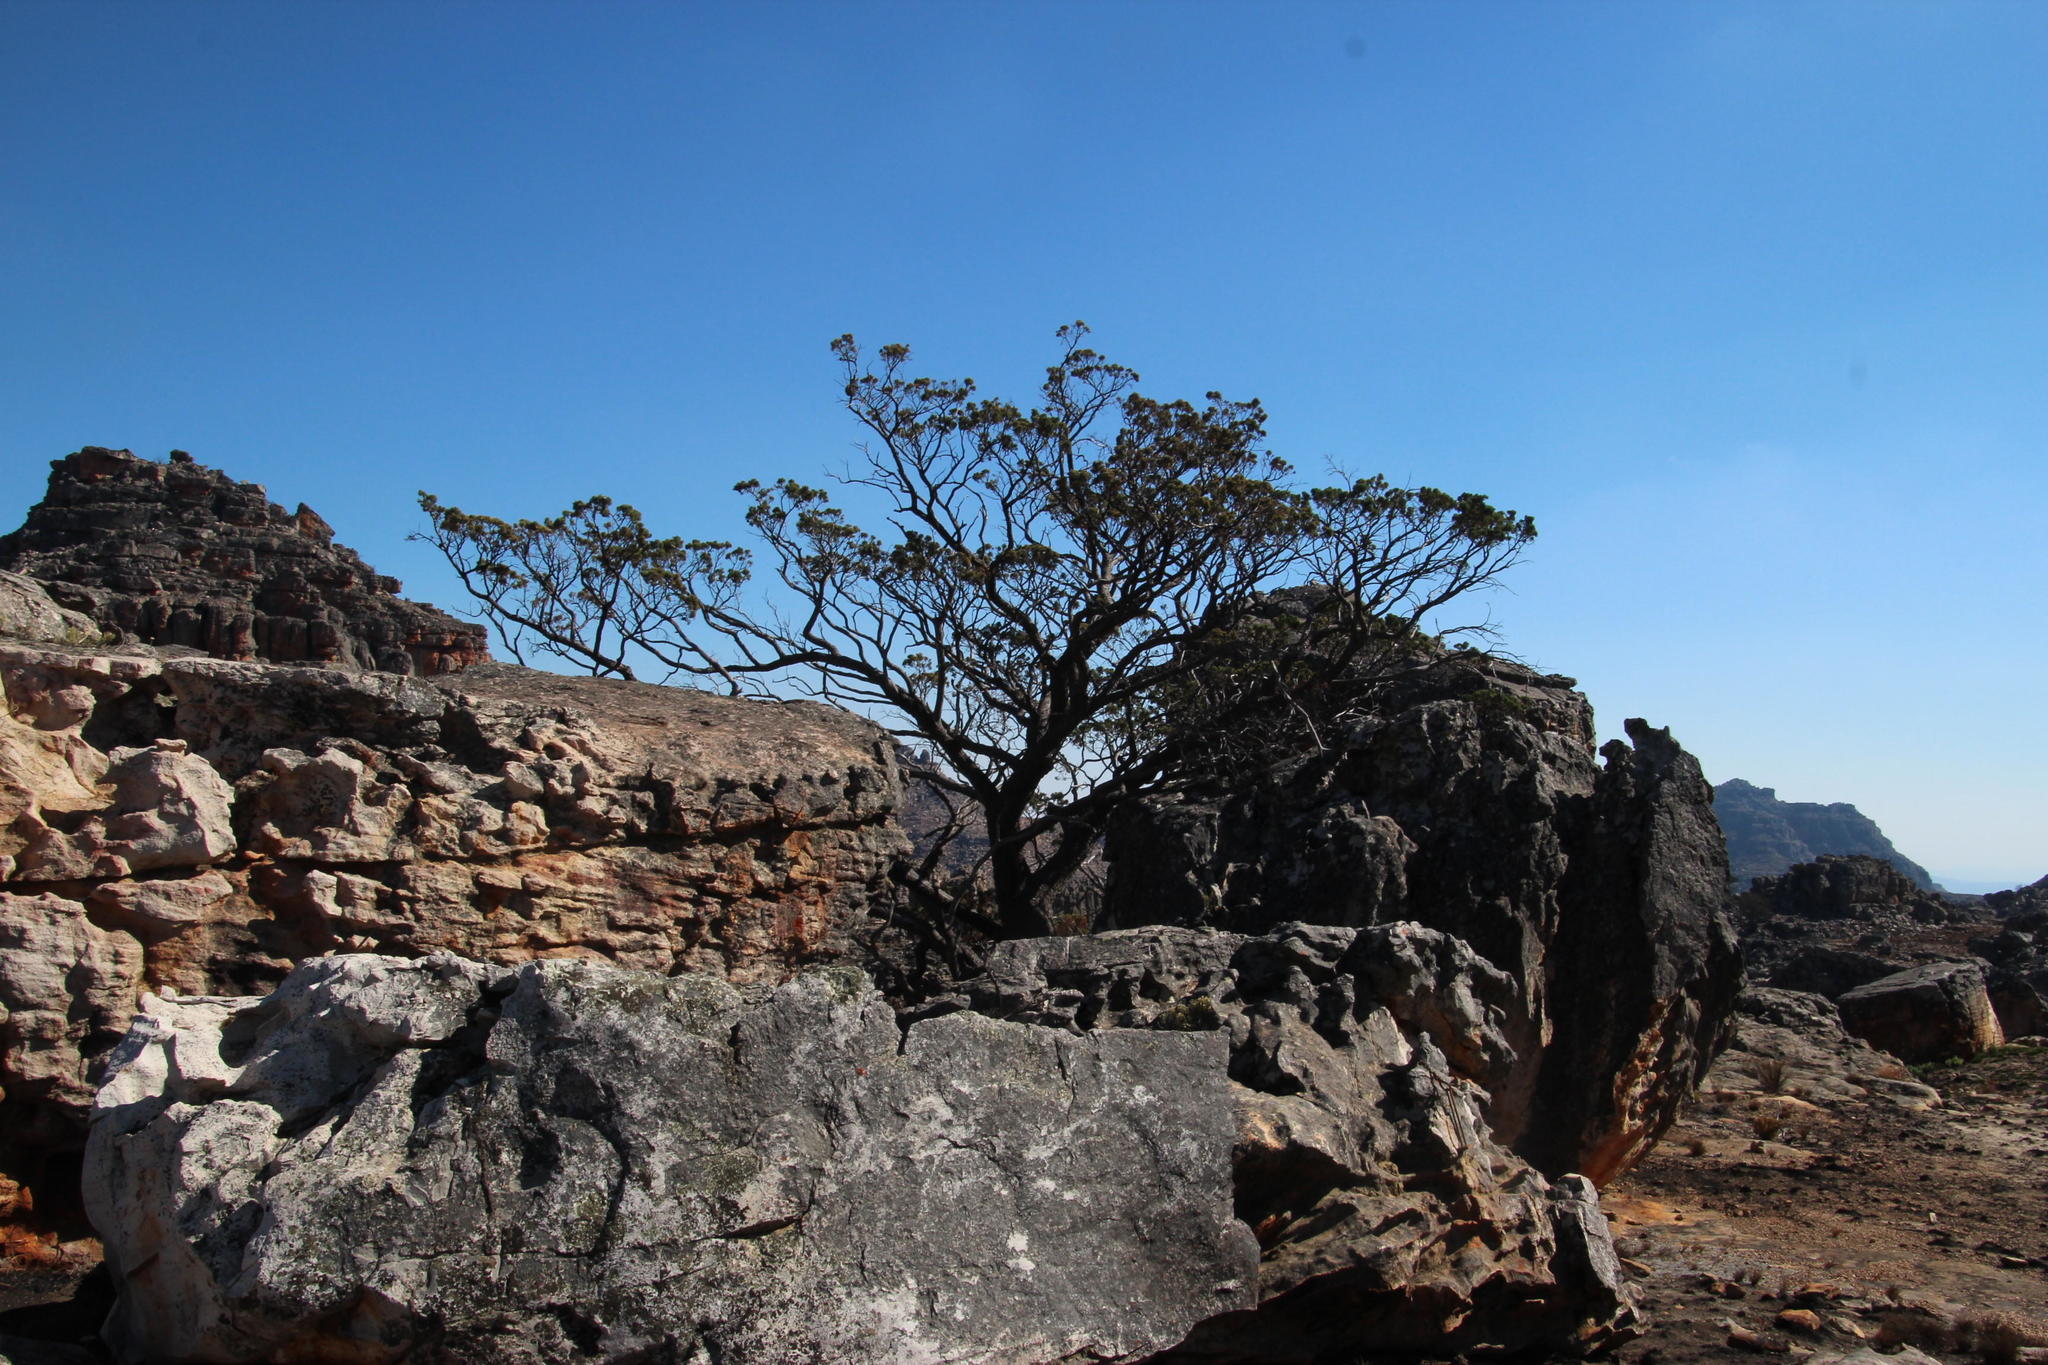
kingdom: Plantae
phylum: Tracheophyta
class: Pinopsida
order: Pinales
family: Cupressaceae
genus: Widdringtonia
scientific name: Widdringtonia nodiflora
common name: Cape cypress
